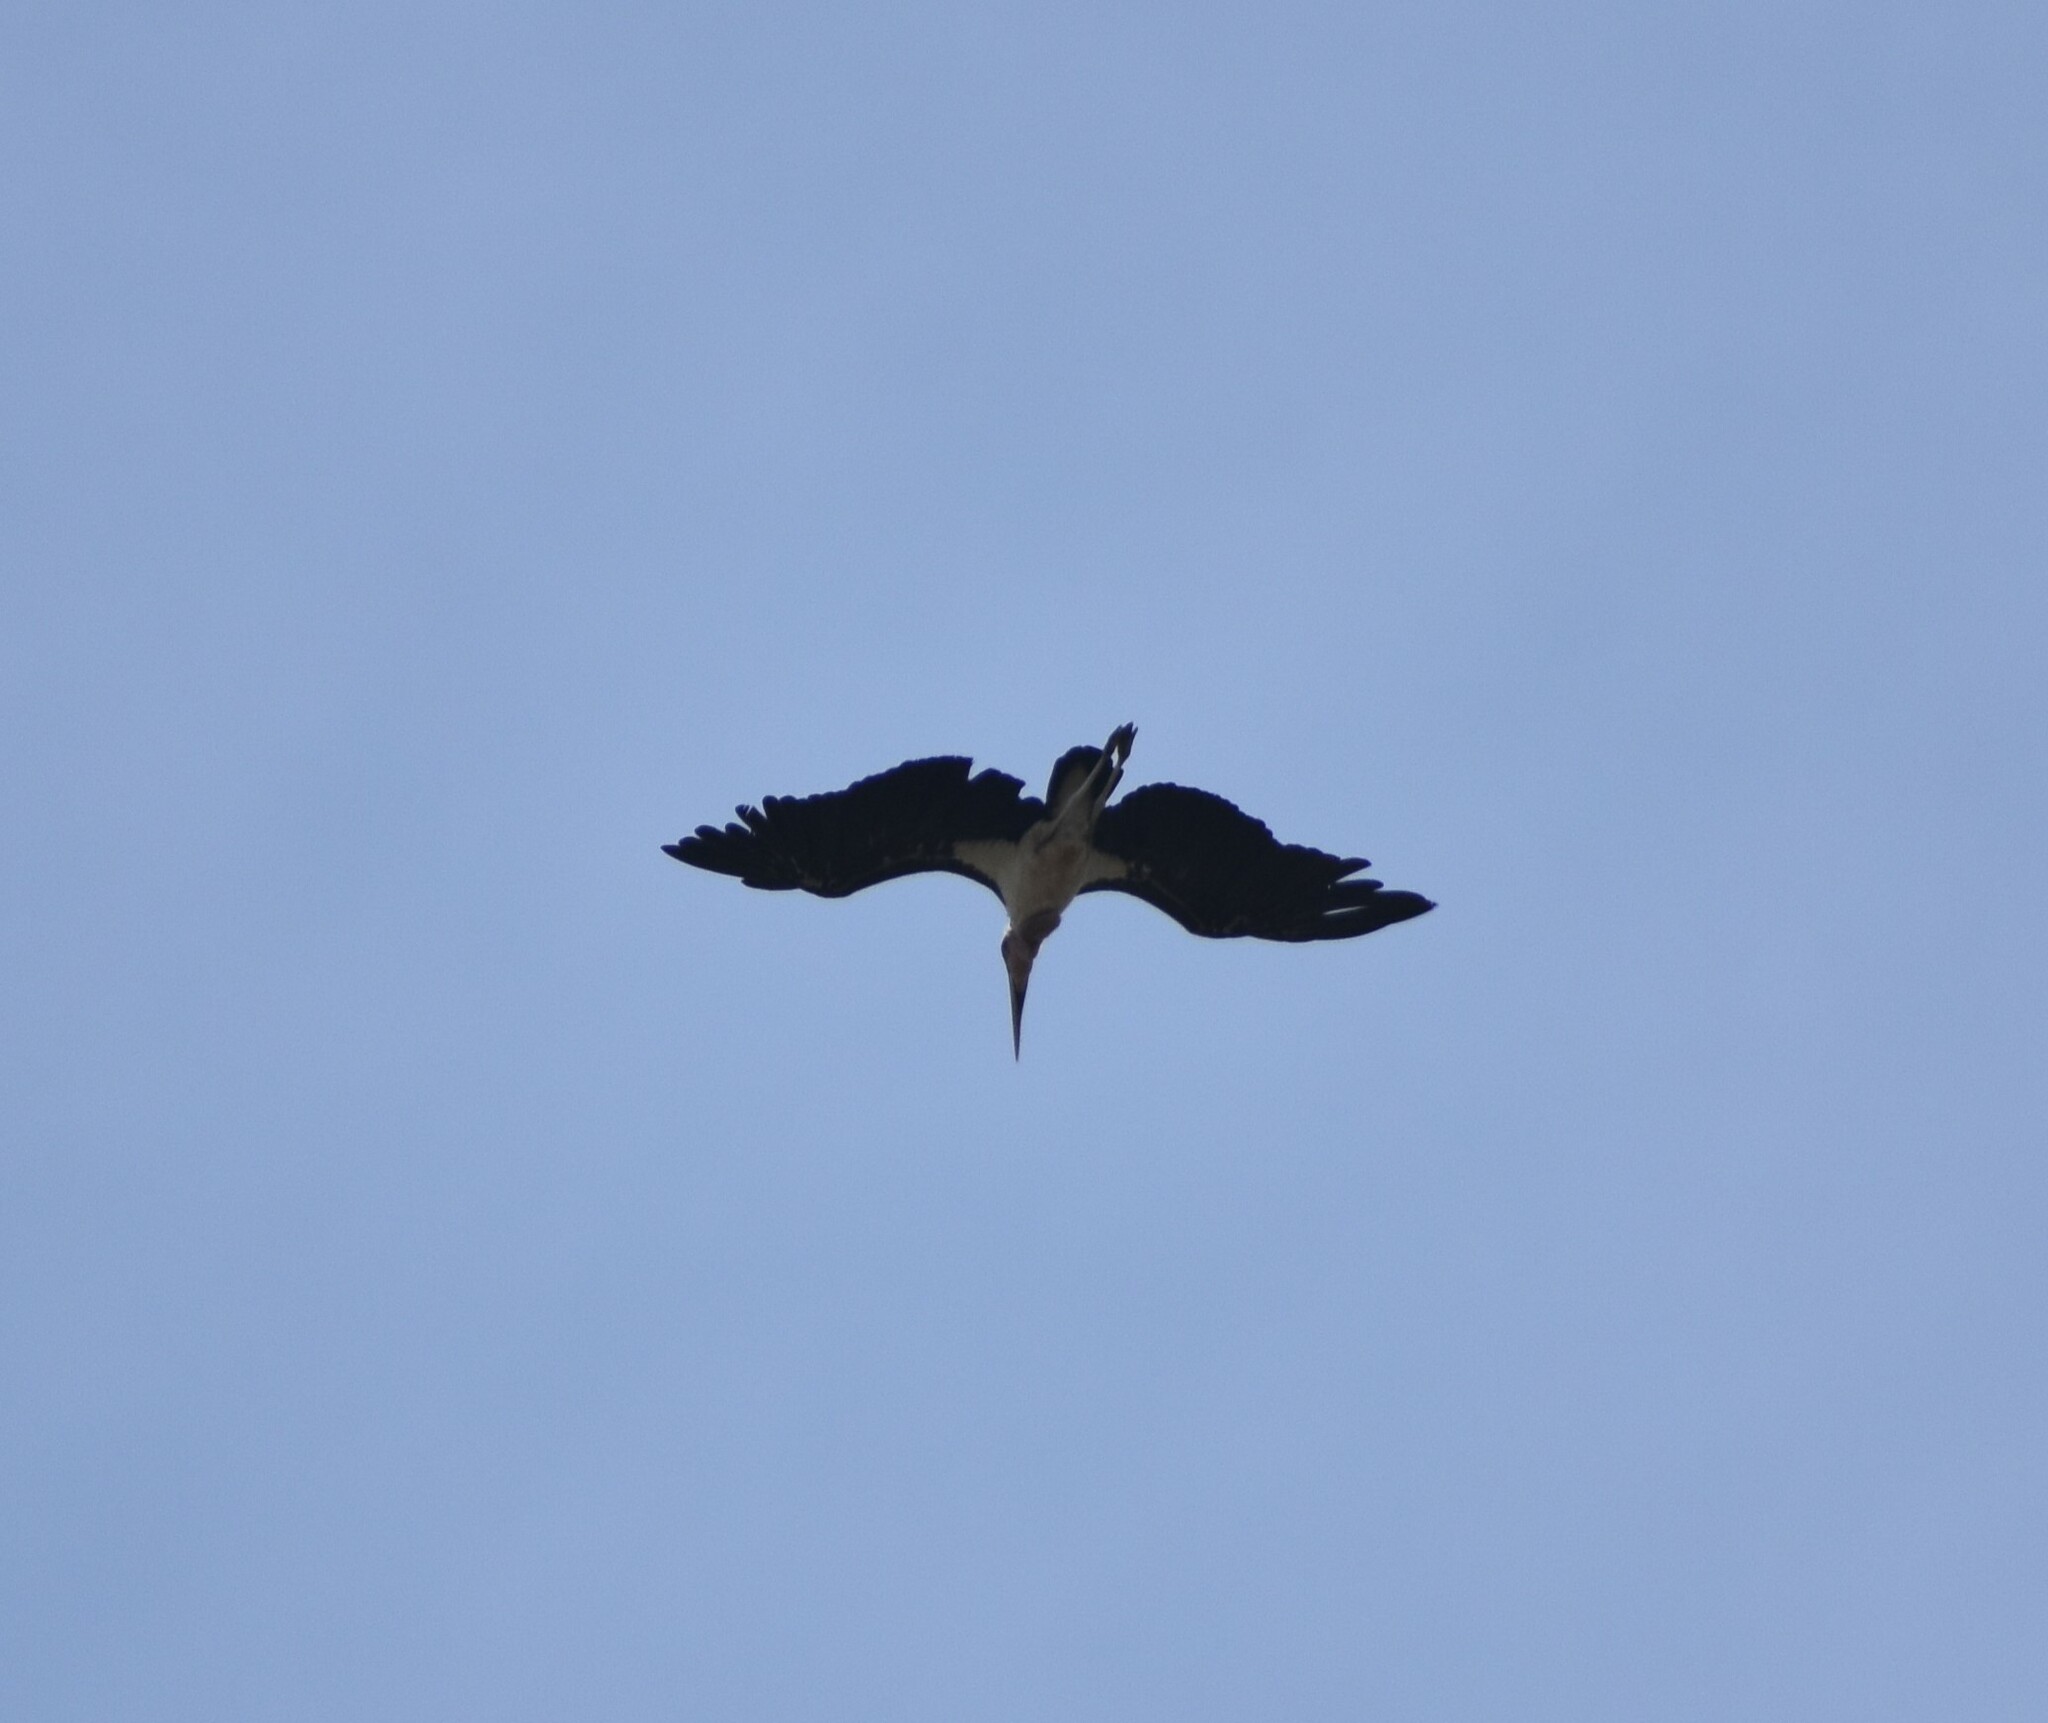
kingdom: Animalia
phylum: Chordata
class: Aves
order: Ciconiiformes
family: Ciconiidae
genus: Leptoptilos
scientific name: Leptoptilos crumenifer
